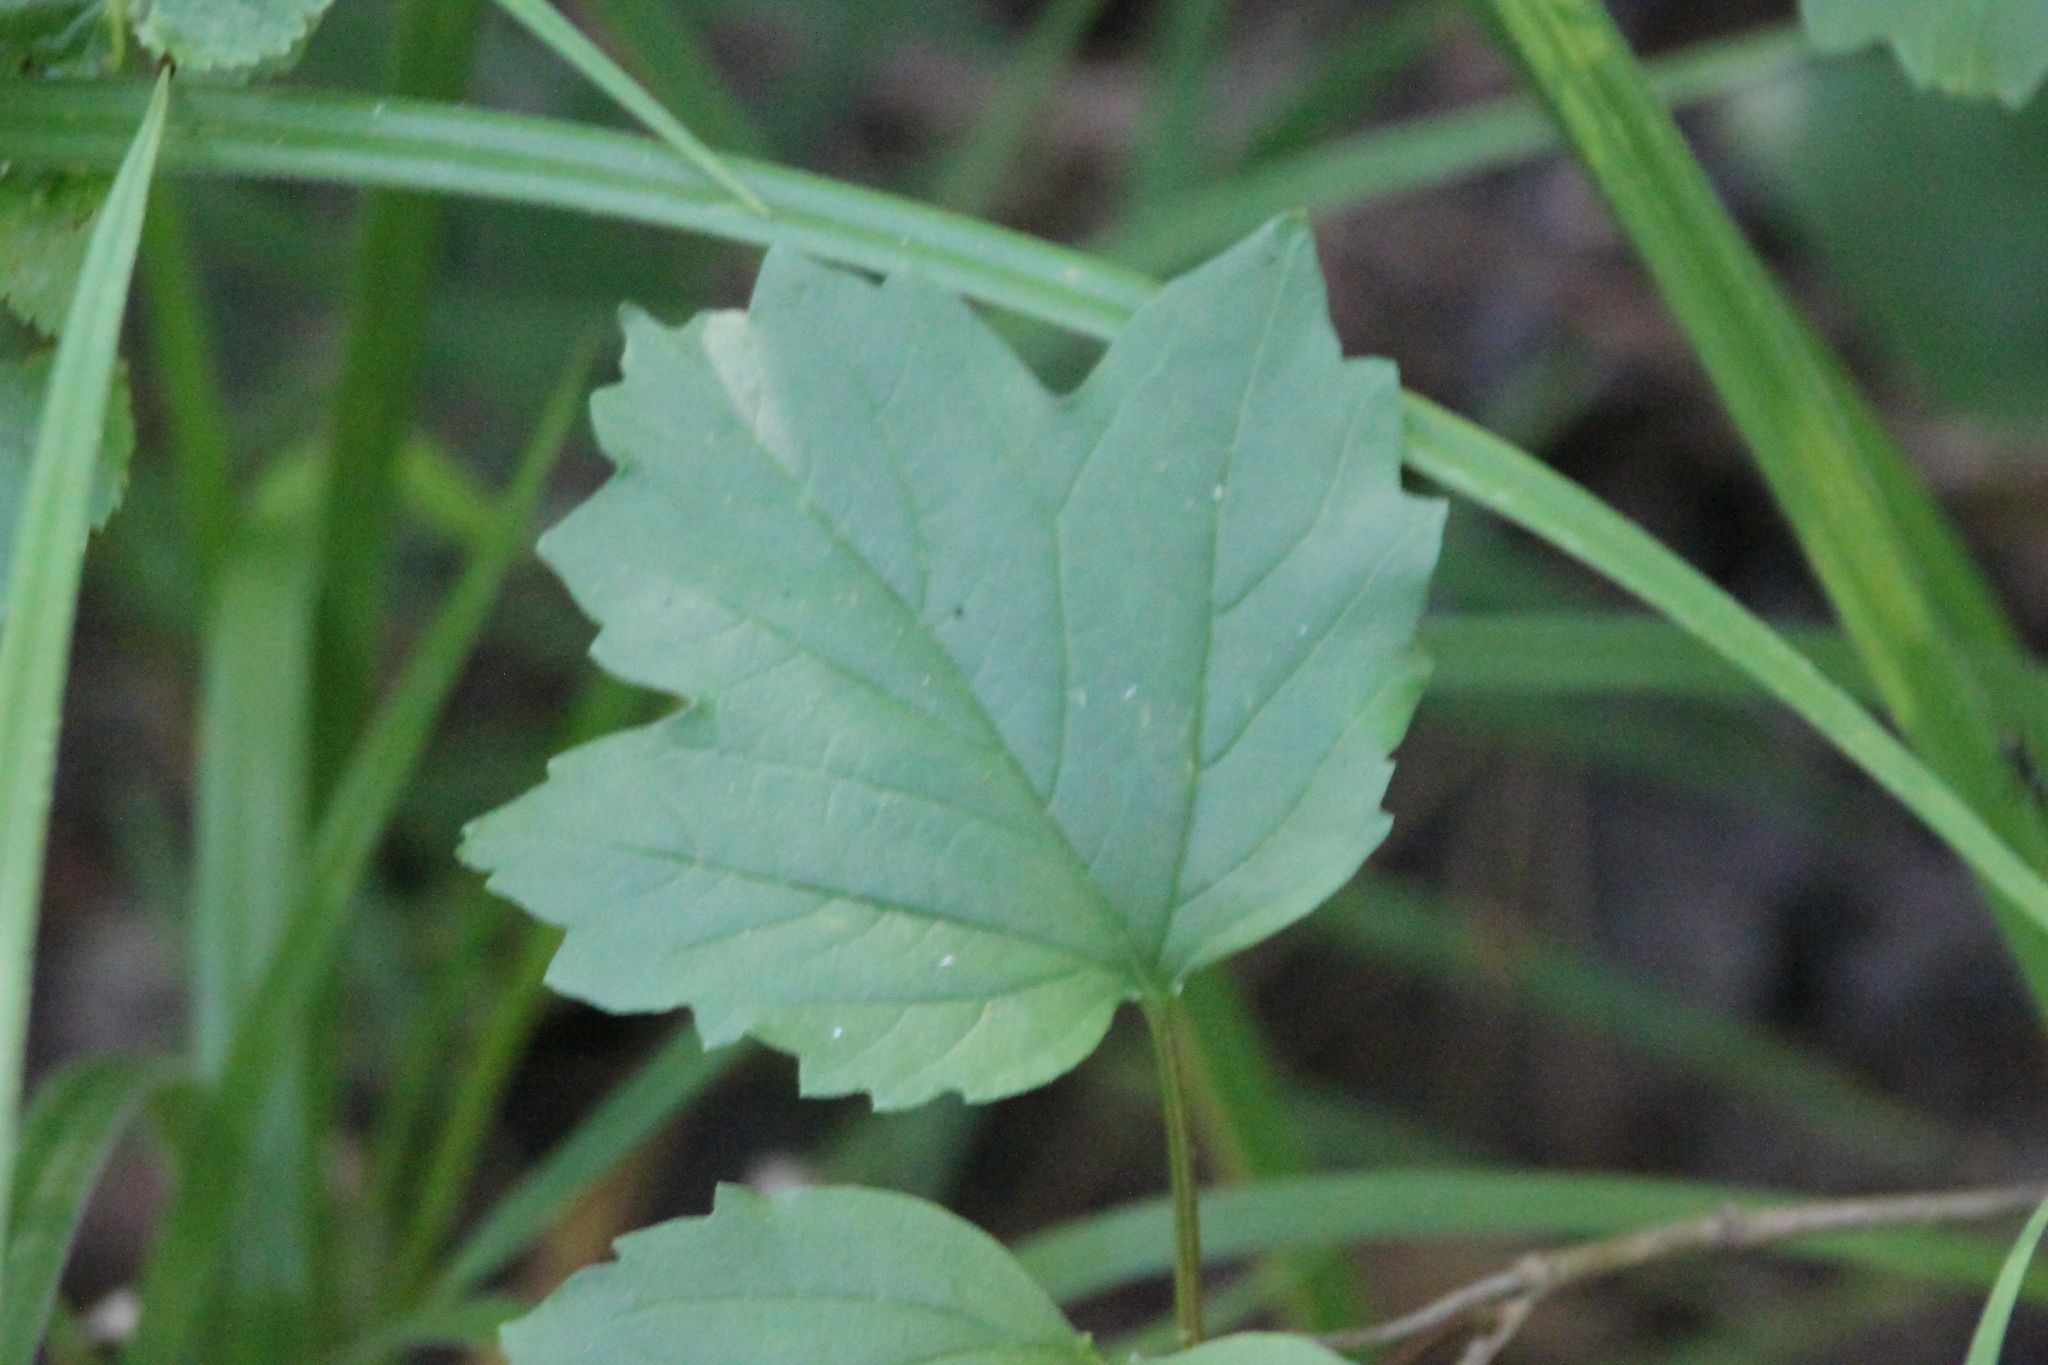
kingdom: Plantae
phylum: Tracheophyta
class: Magnoliopsida
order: Dipsacales
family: Viburnaceae
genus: Viburnum
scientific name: Viburnum opulus
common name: Guelder-rose
